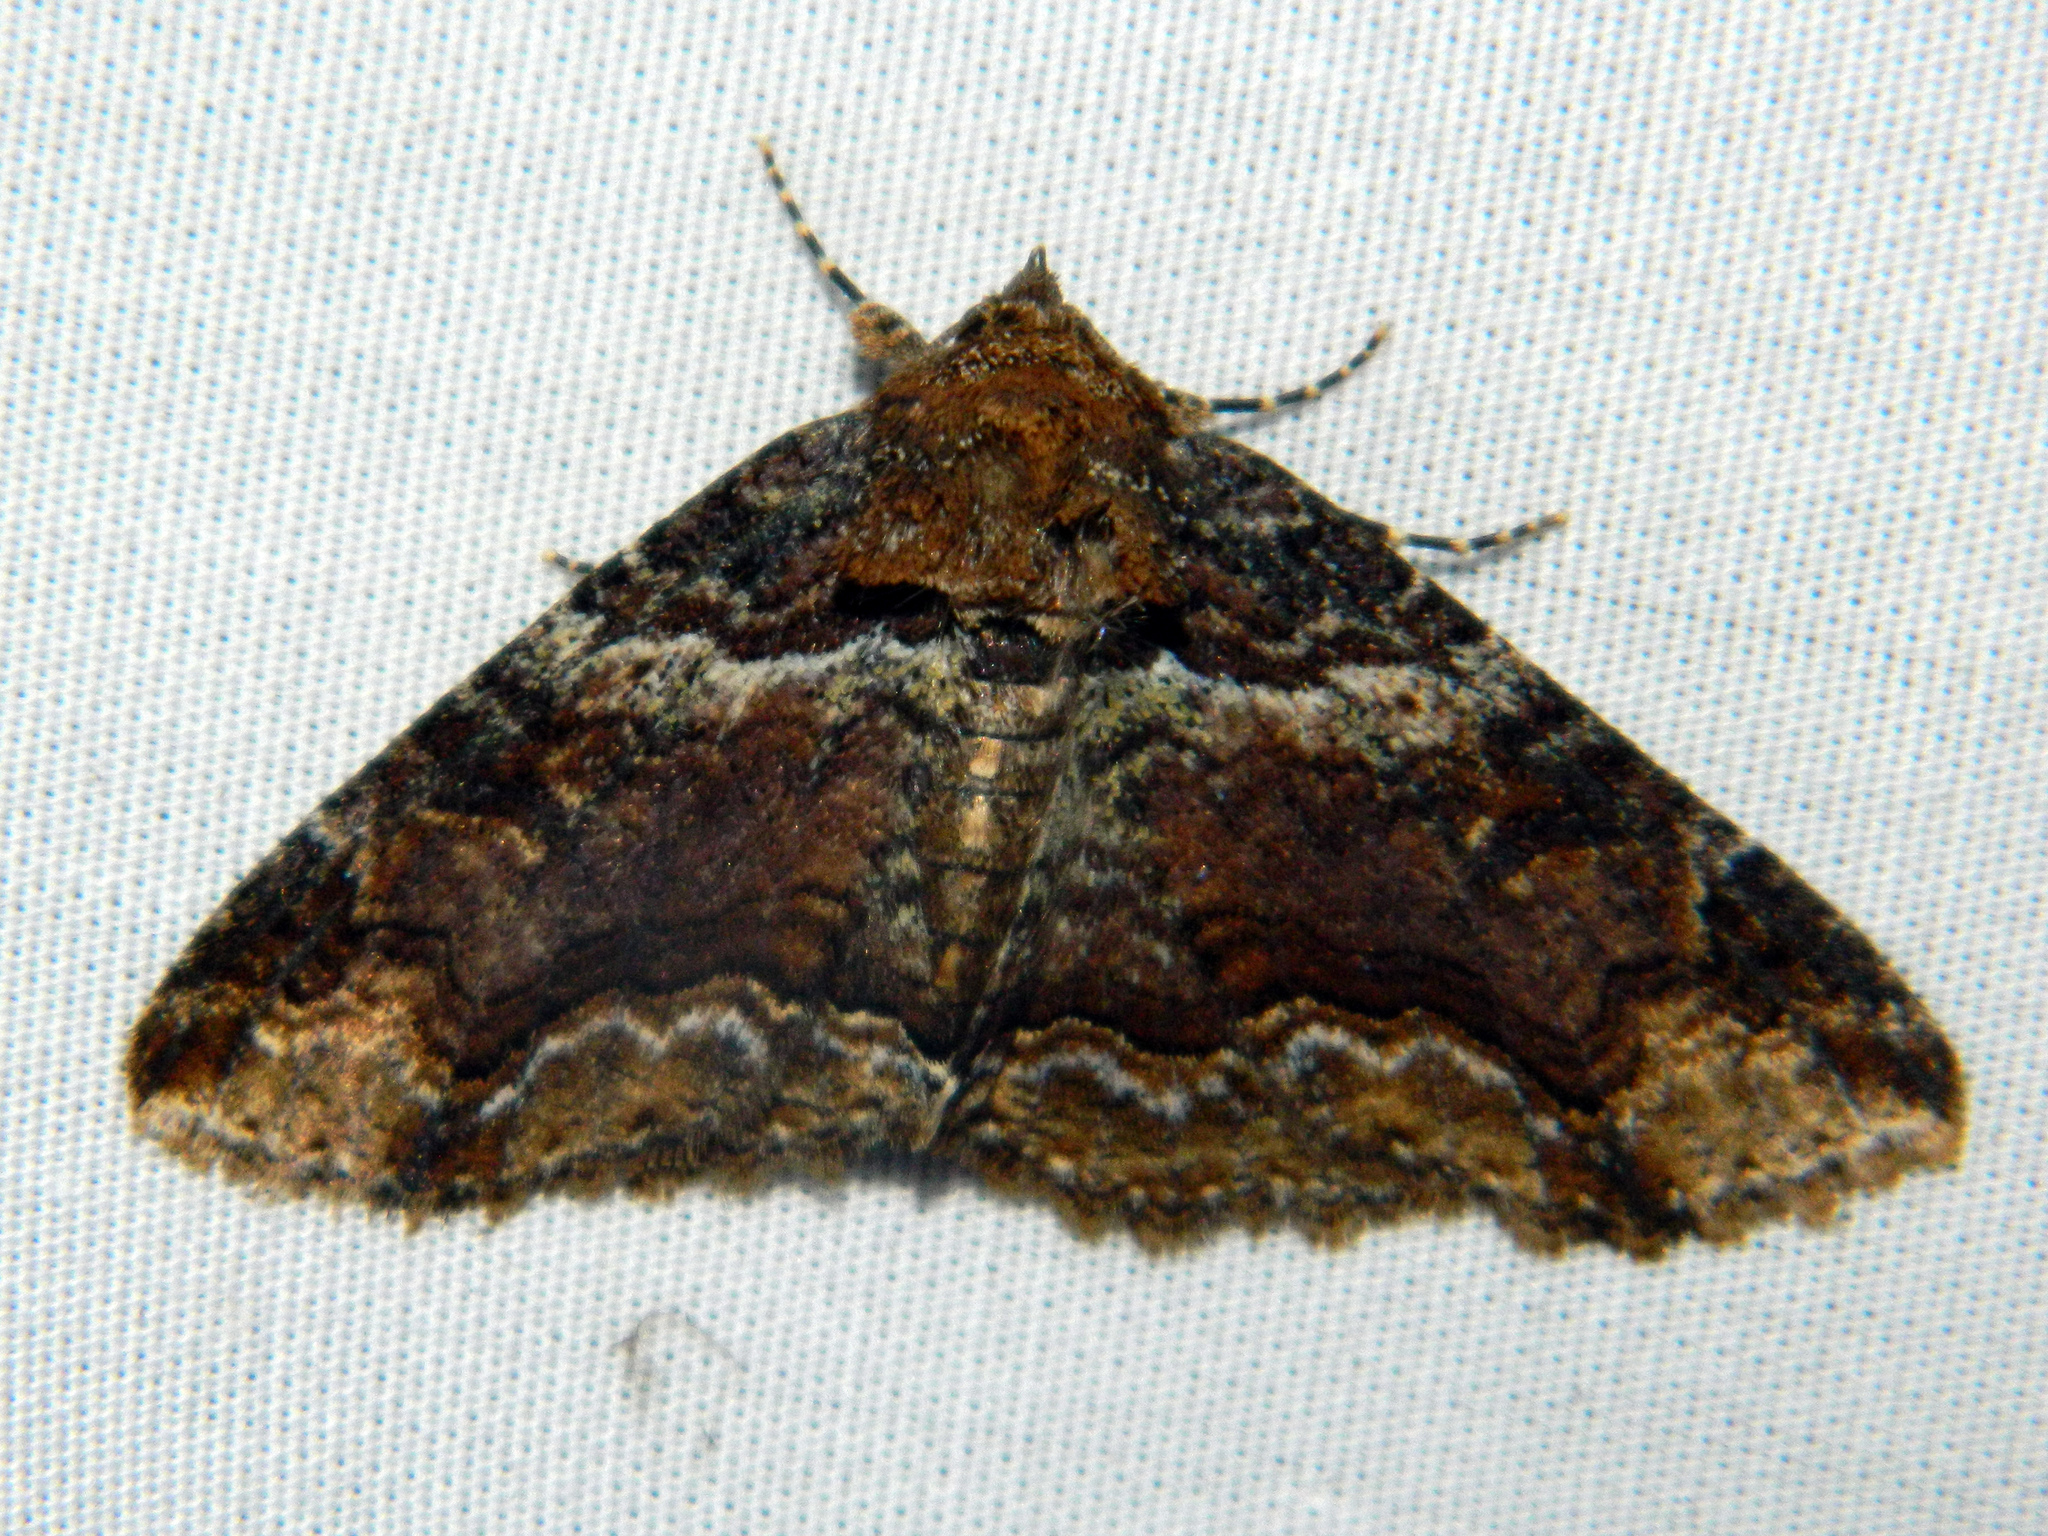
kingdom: Animalia
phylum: Arthropoda
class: Insecta
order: Lepidoptera
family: Erebidae
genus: Zale
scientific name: Zale minerea
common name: Colorful zale moth
